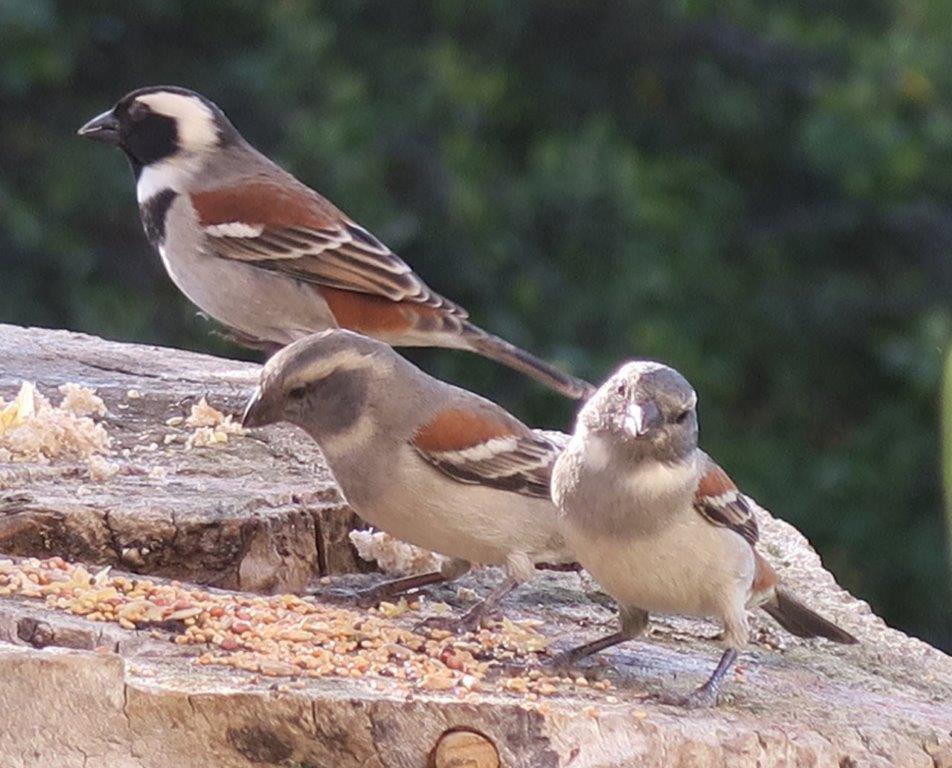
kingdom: Animalia
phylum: Chordata
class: Aves
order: Passeriformes
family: Passeridae
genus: Passer
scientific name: Passer melanurus
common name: Cape sparrow
